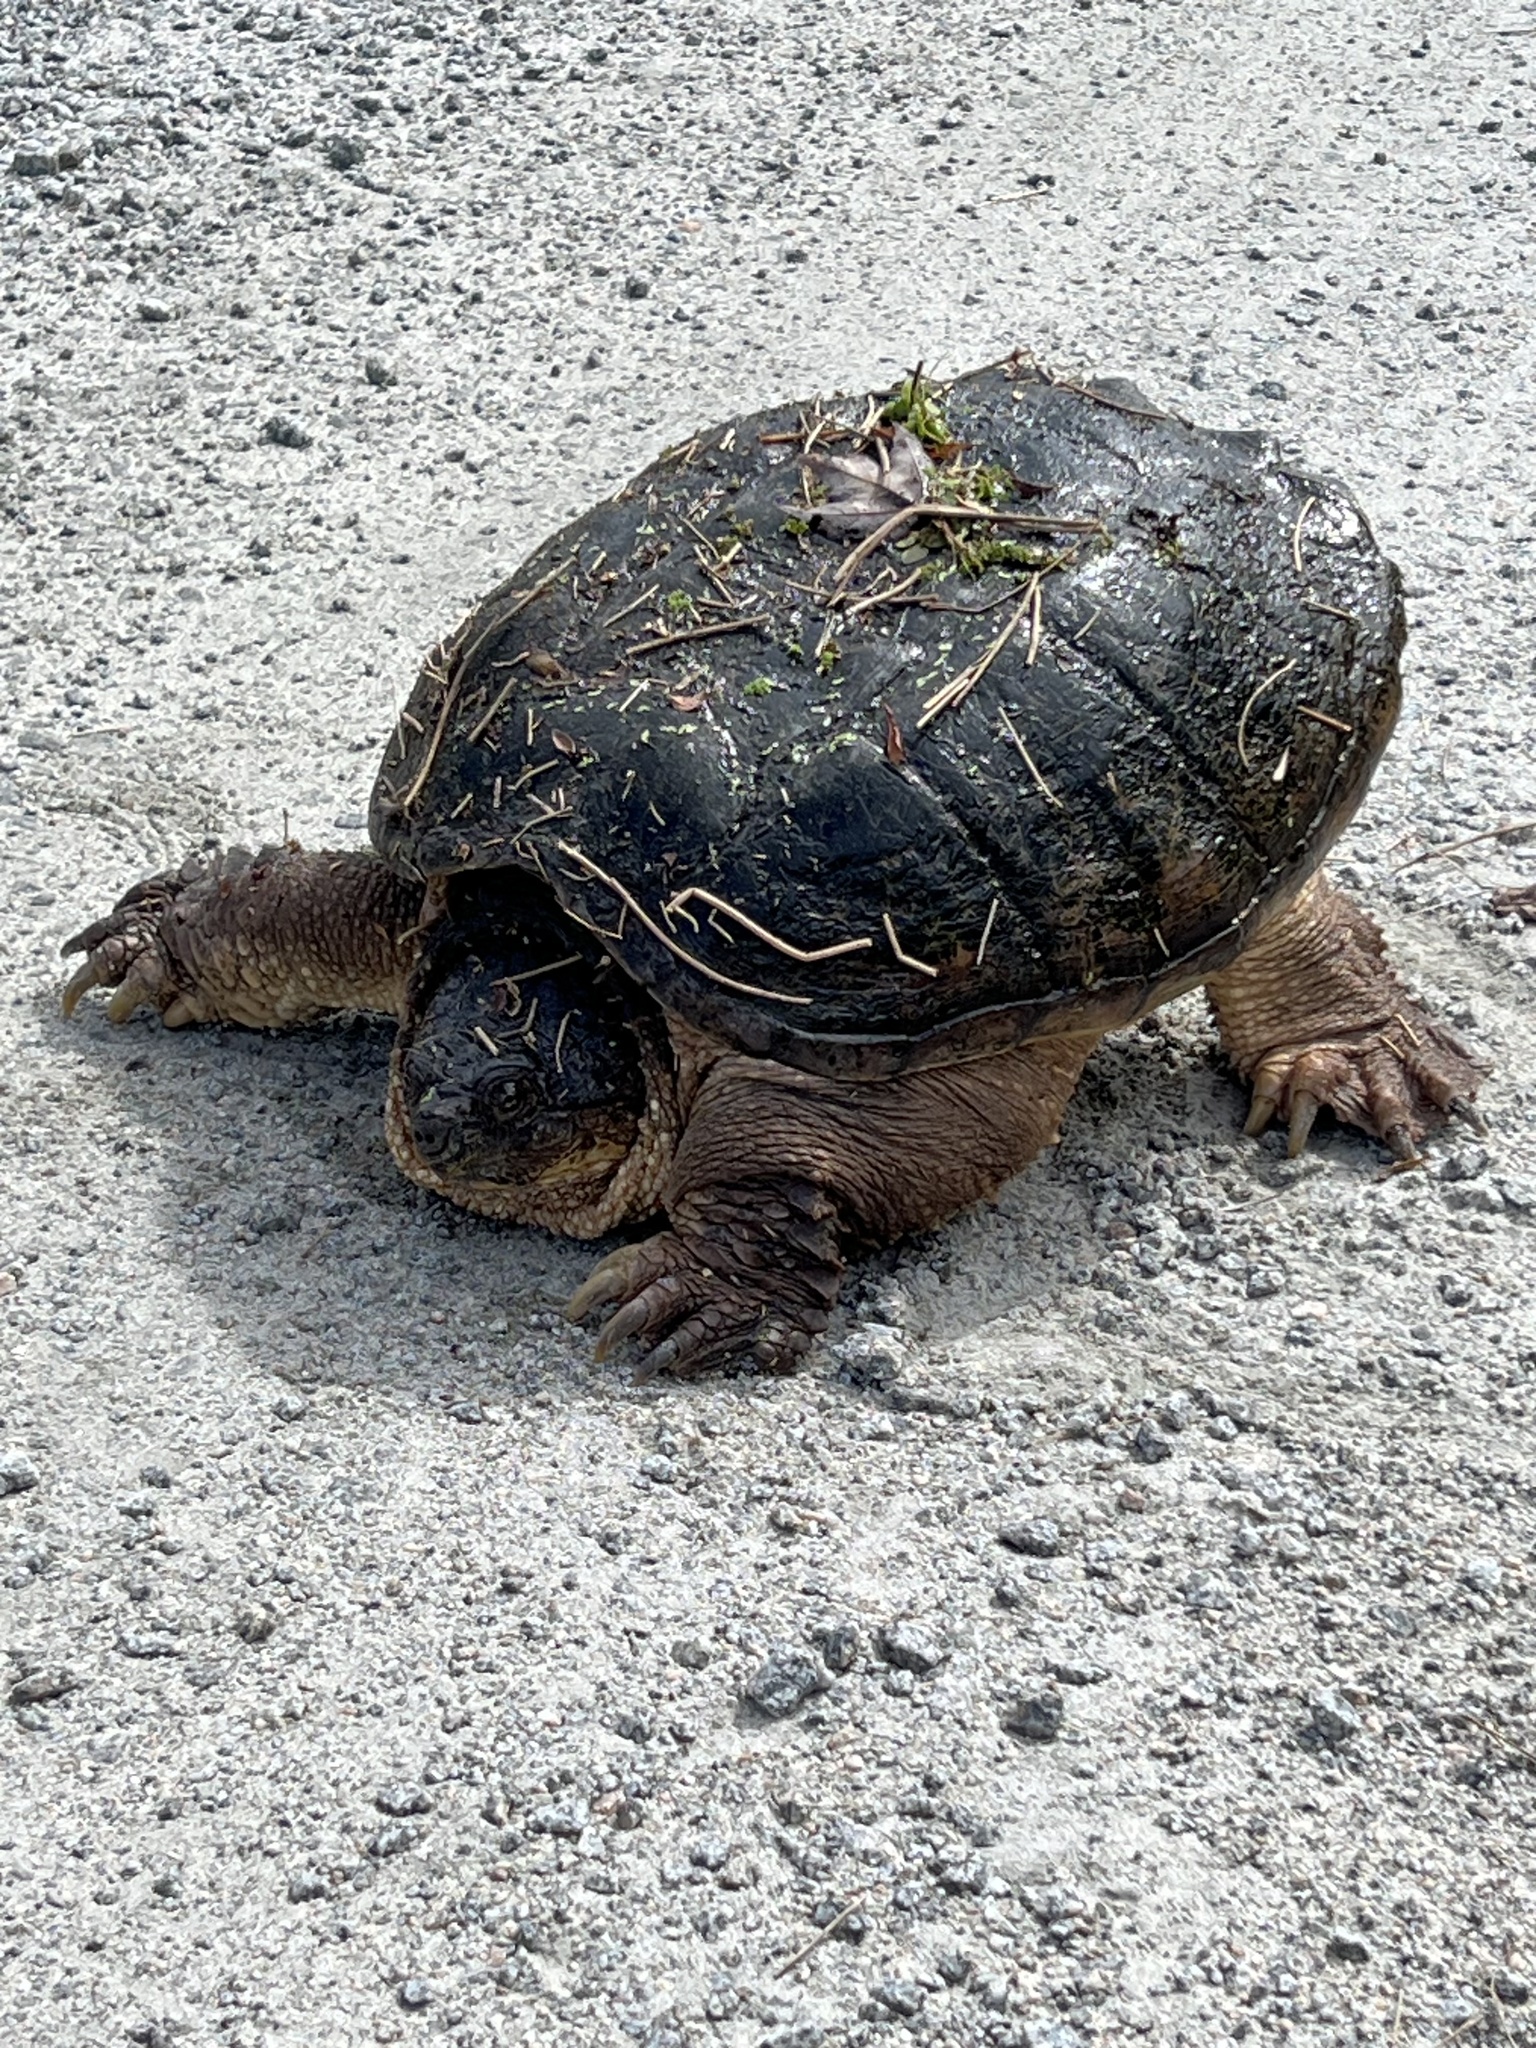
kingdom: Animalia
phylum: Chordata
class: Testudines
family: Chelydridae
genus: Chelydra
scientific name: Chelydra serpentina
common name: Common snapping turtle
